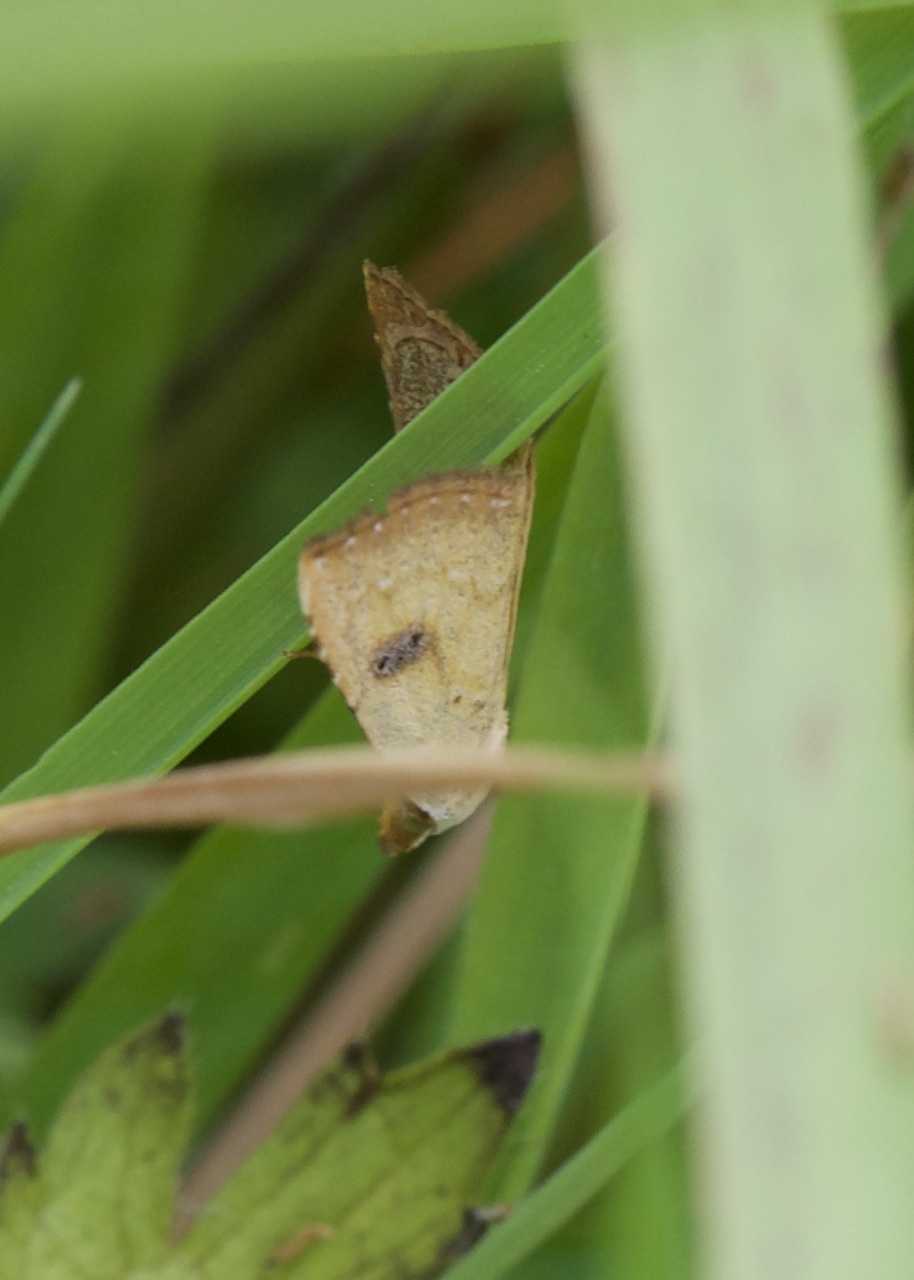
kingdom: Animalia
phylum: Arthropoda
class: Insecta
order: Lepidoptera
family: Erebidae
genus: Rivula
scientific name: Rivula sericealis
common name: Straw dot
